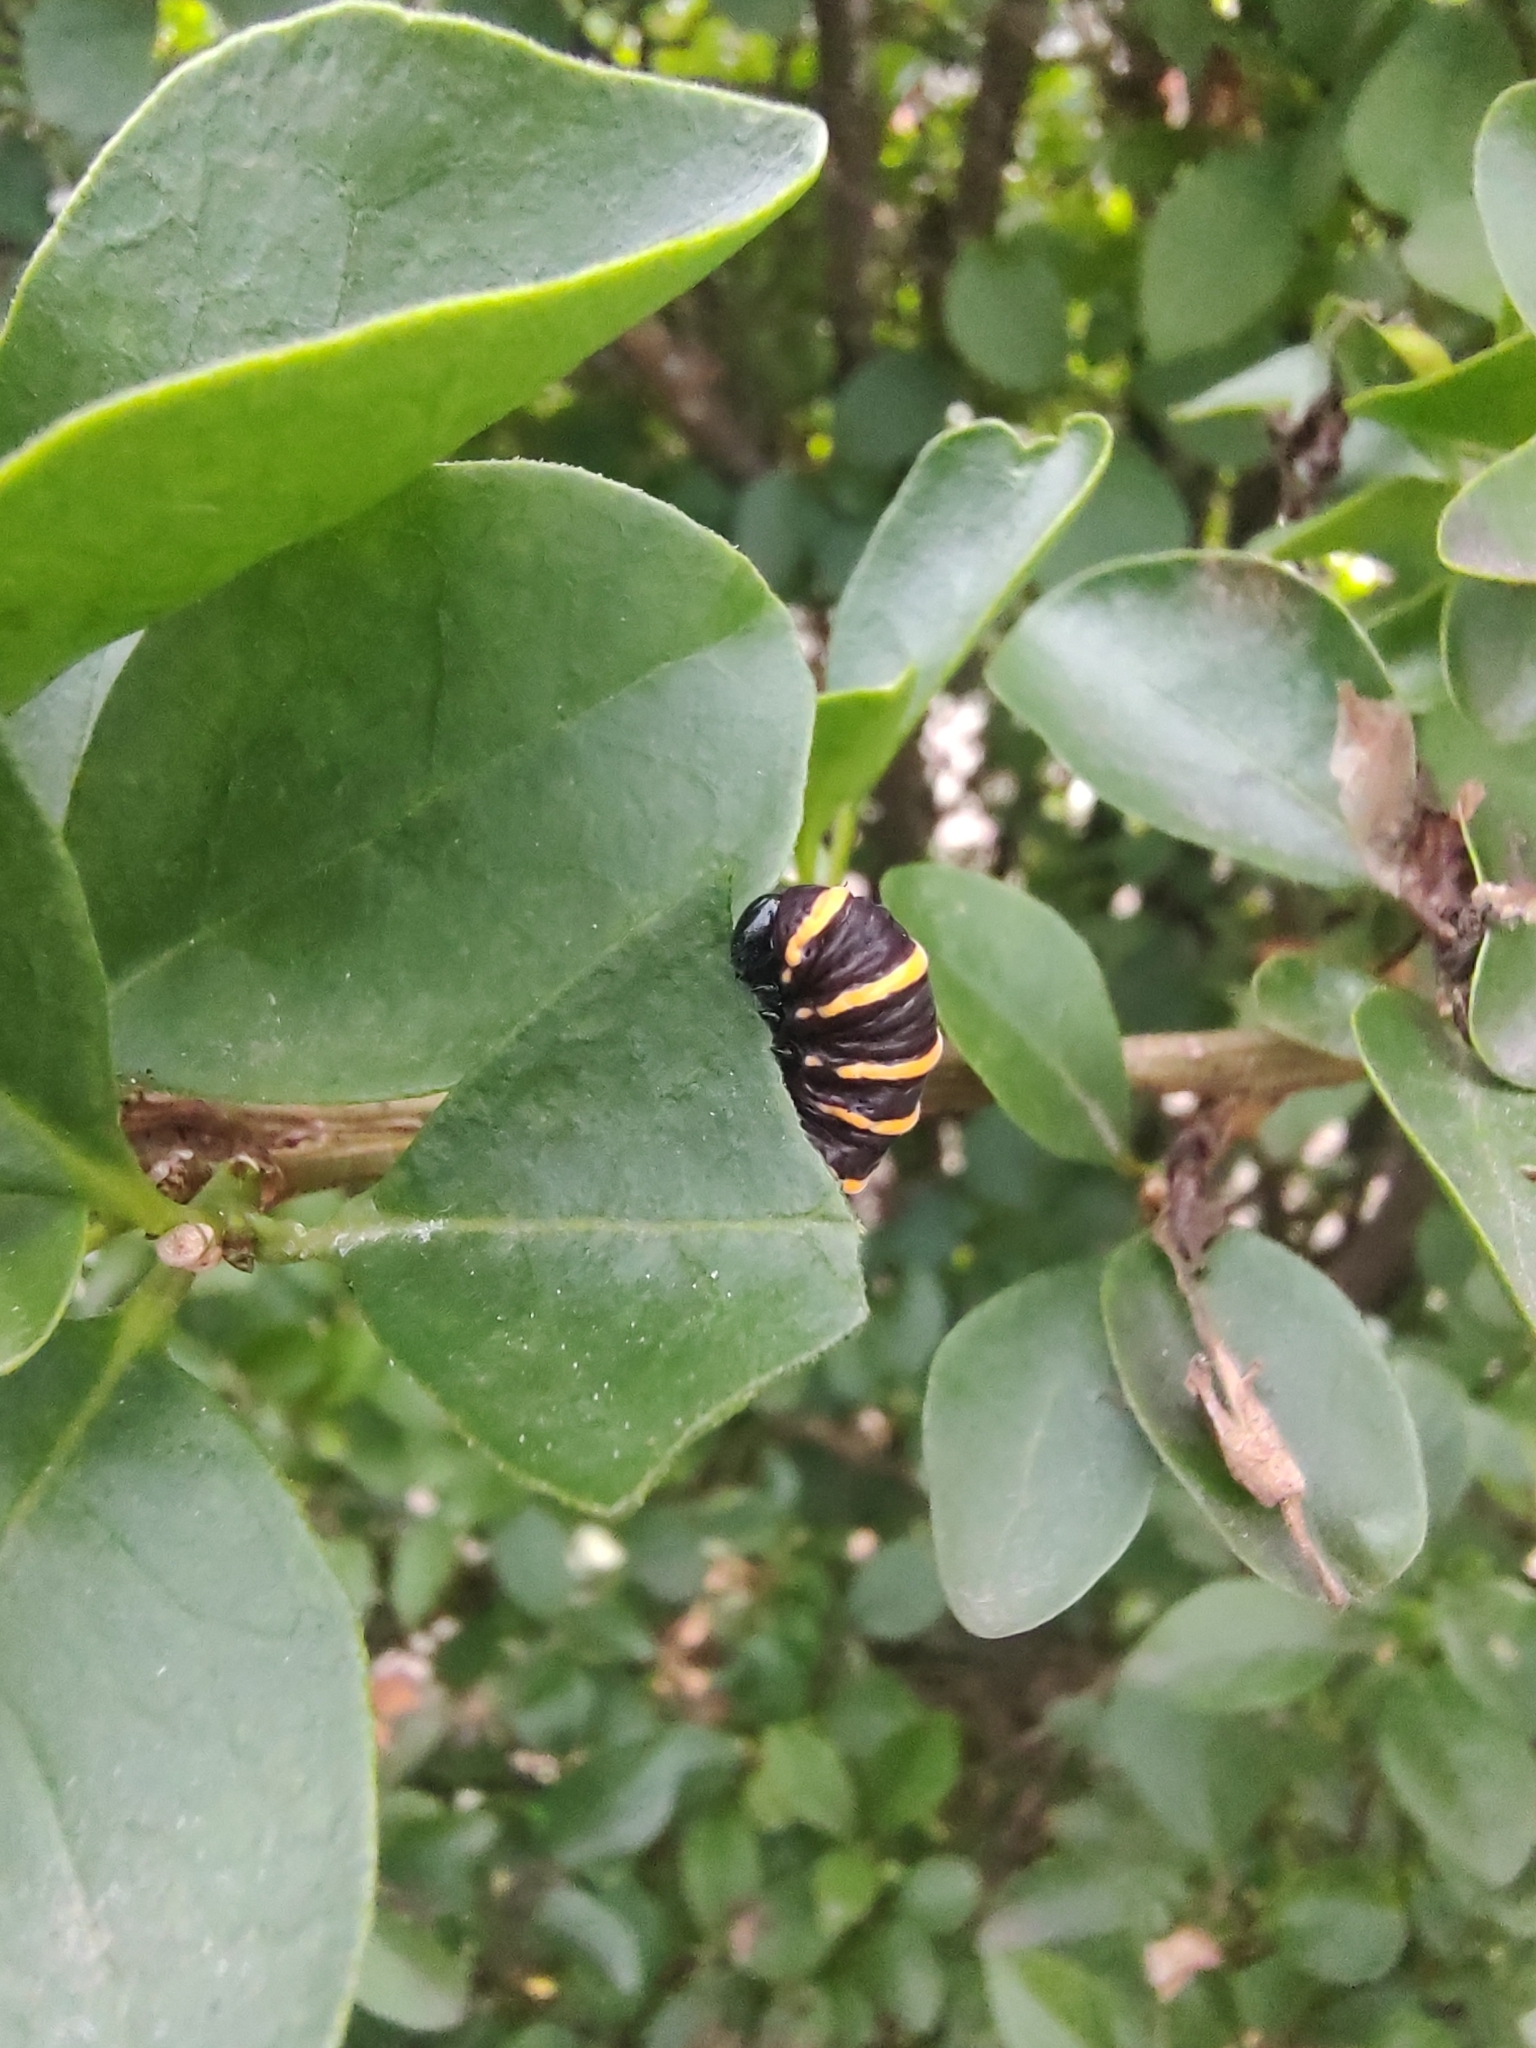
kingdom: Animalia
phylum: Arthropoda
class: Insecta
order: Lepidoptera
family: Nymphalidae
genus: Methona
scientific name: Methona themisto
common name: Themisto amberwing
